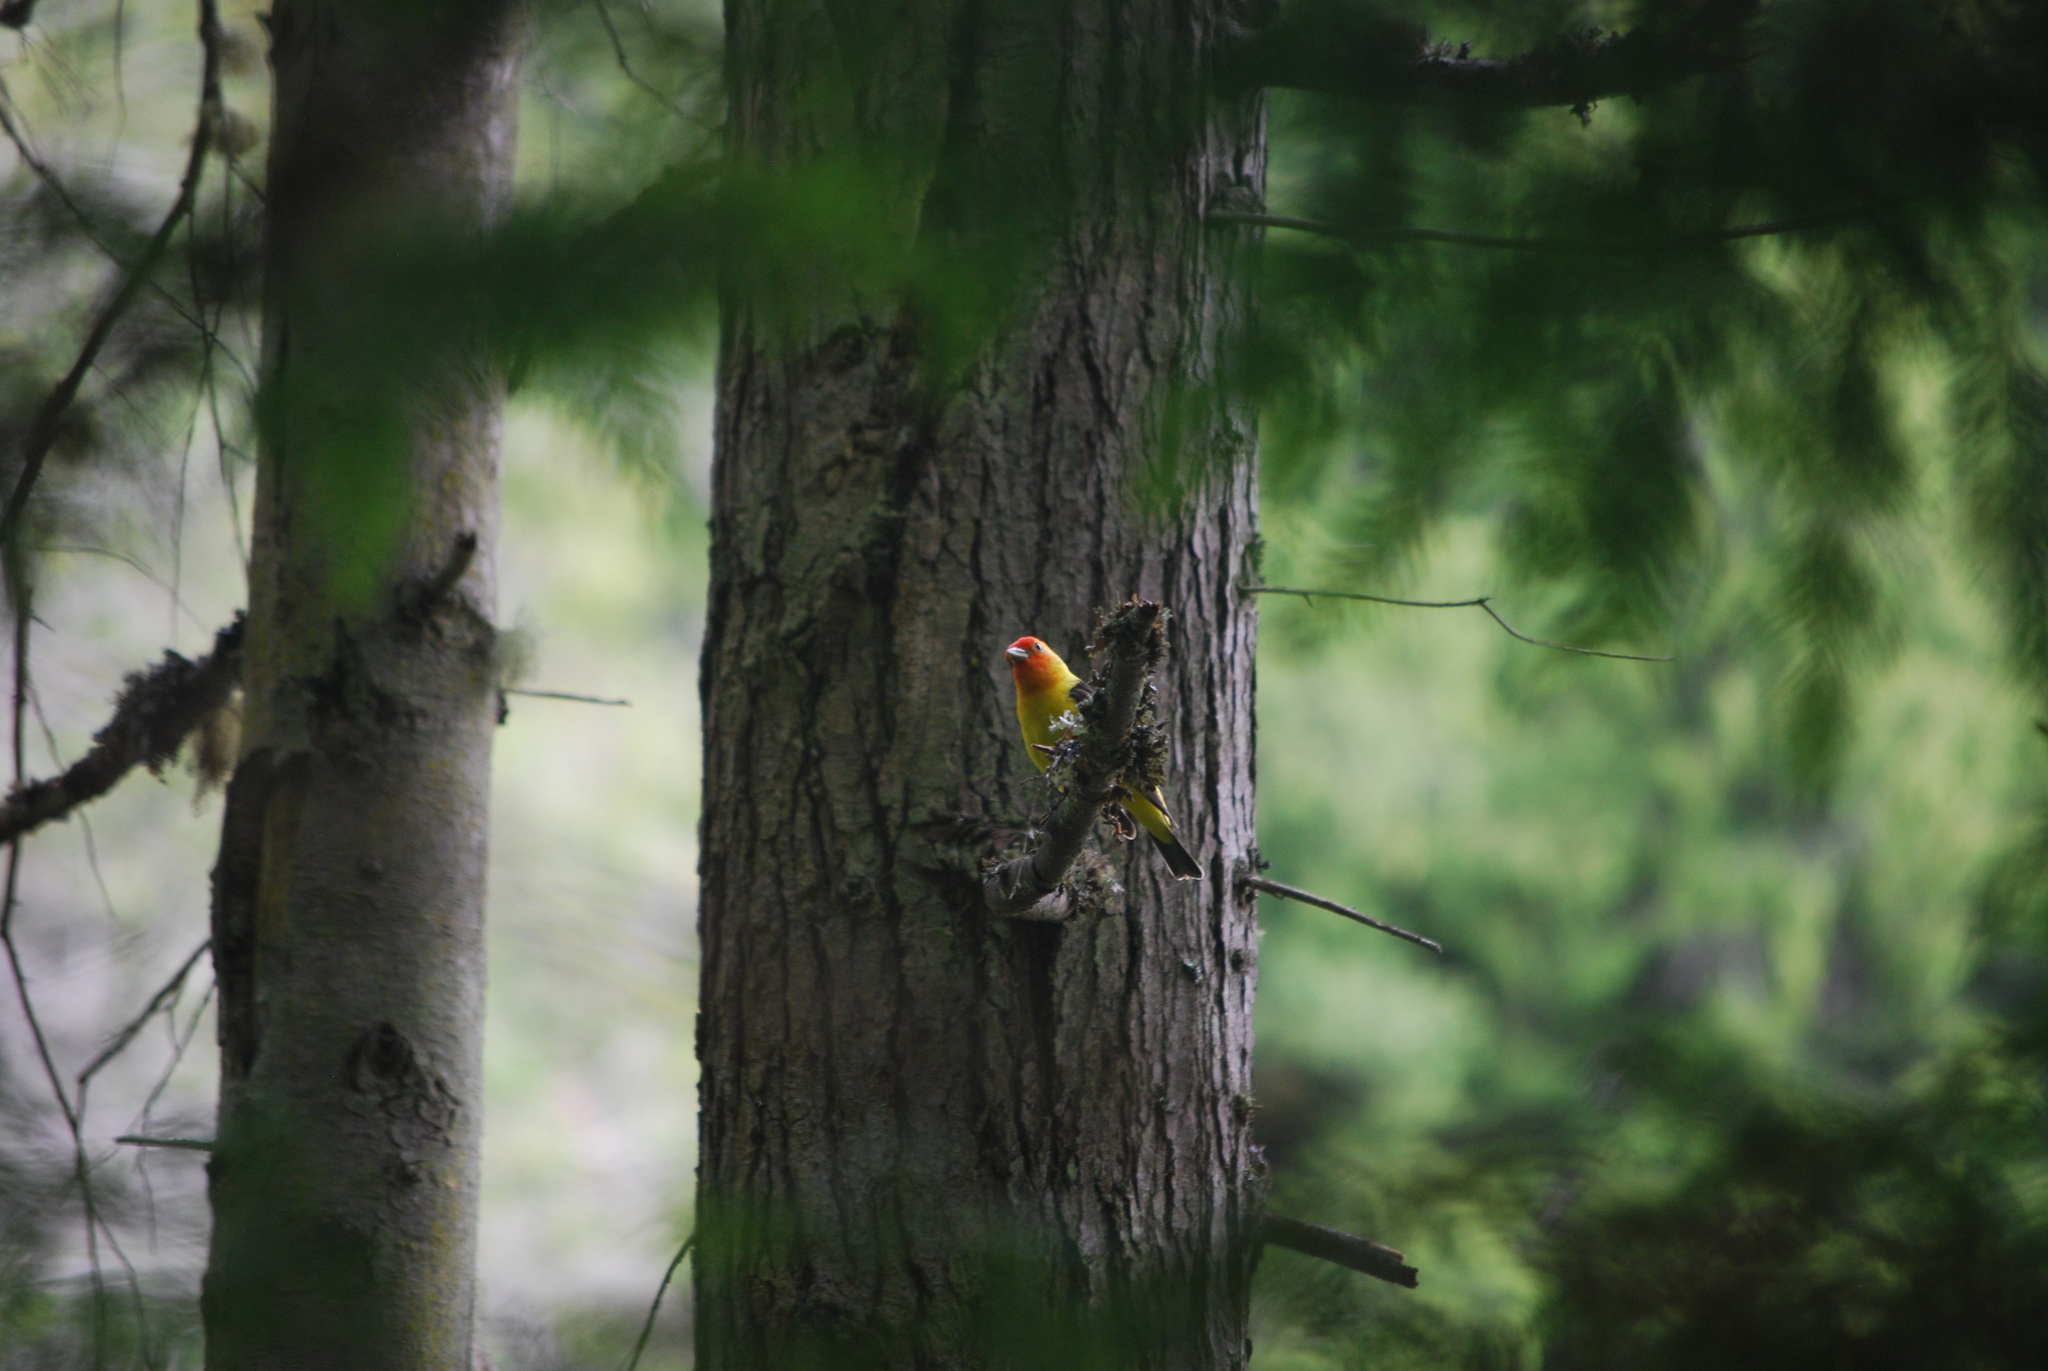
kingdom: Animalia
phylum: Chordata
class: Aves
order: Passeriformes
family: Cardinalidae
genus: Piranga
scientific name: Piranga ludoviciana
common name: Western tanager
